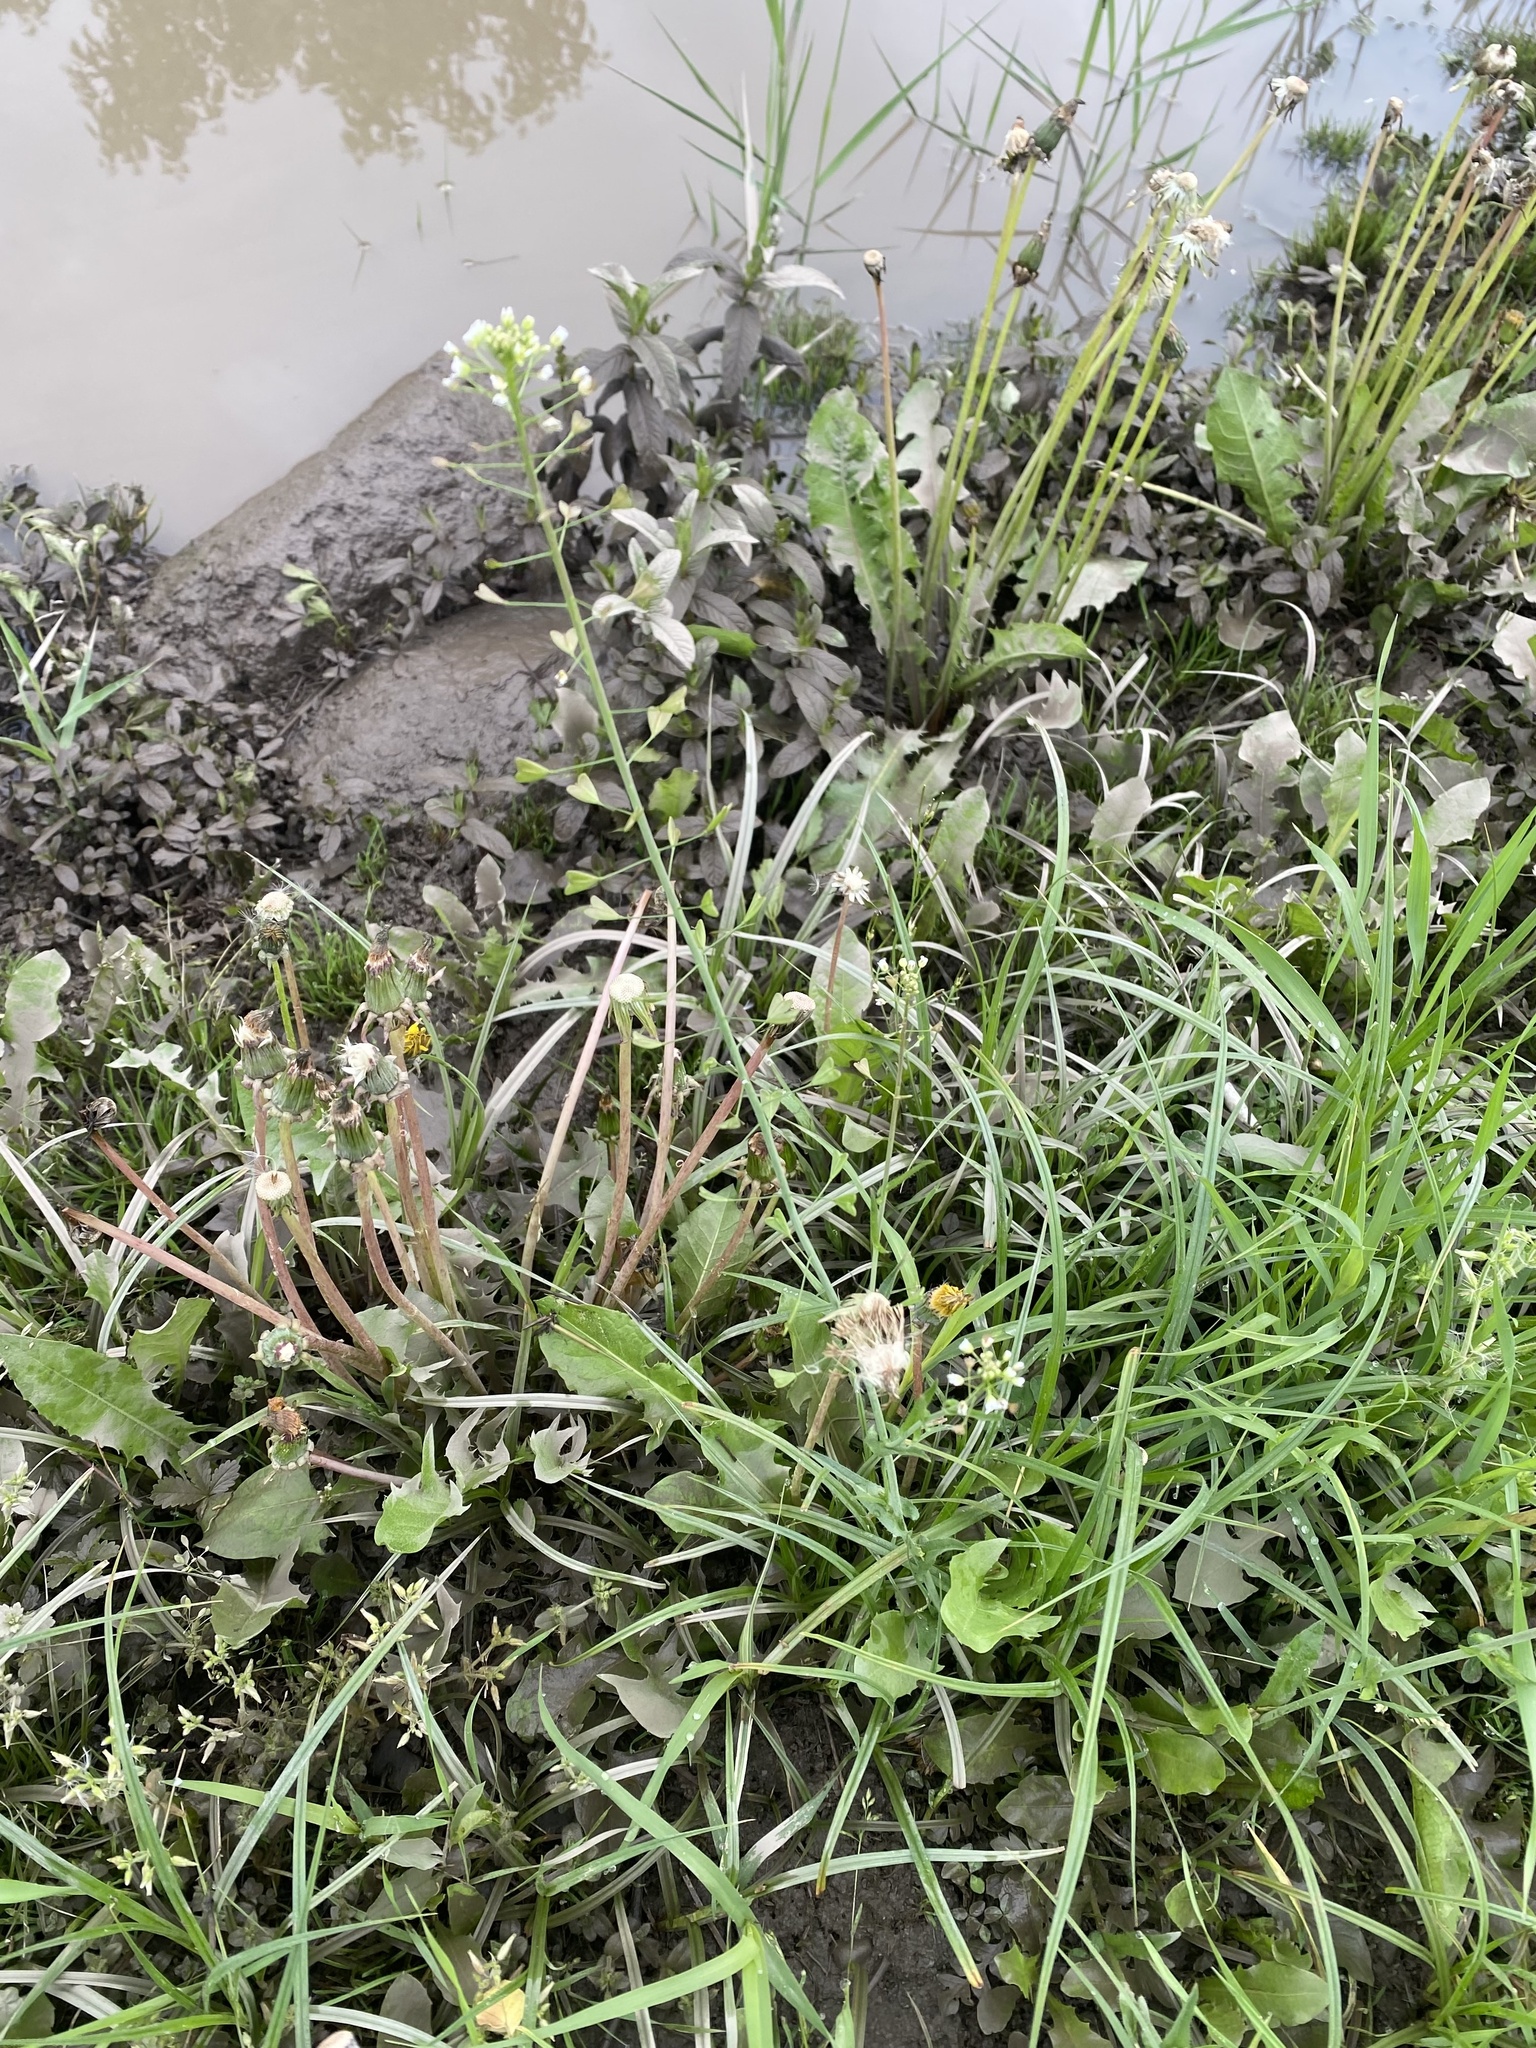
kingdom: Plantae
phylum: Tracheophyta
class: Magnoliopsida
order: Brassicales
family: Brassicaceae
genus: Capsella
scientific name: Capsella bursa-pastoris
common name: Shepherd's purse
